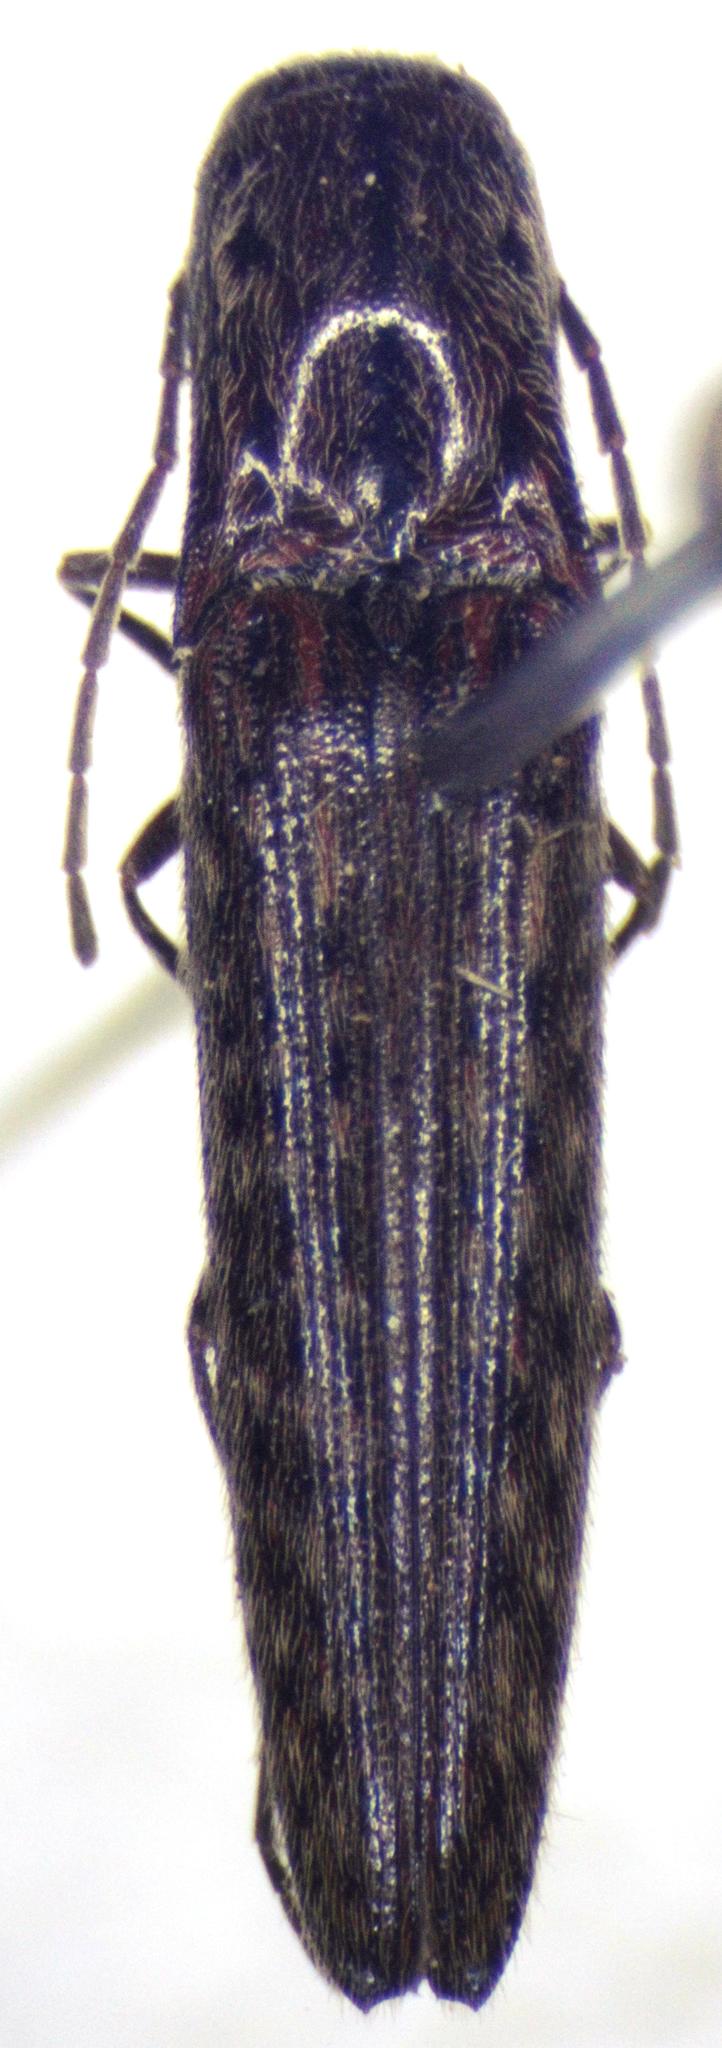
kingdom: Animalia
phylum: Arthropoda
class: Insecta
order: Coleoptera
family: Elateridae
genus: Psiloniscus
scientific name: Psiloniscus
